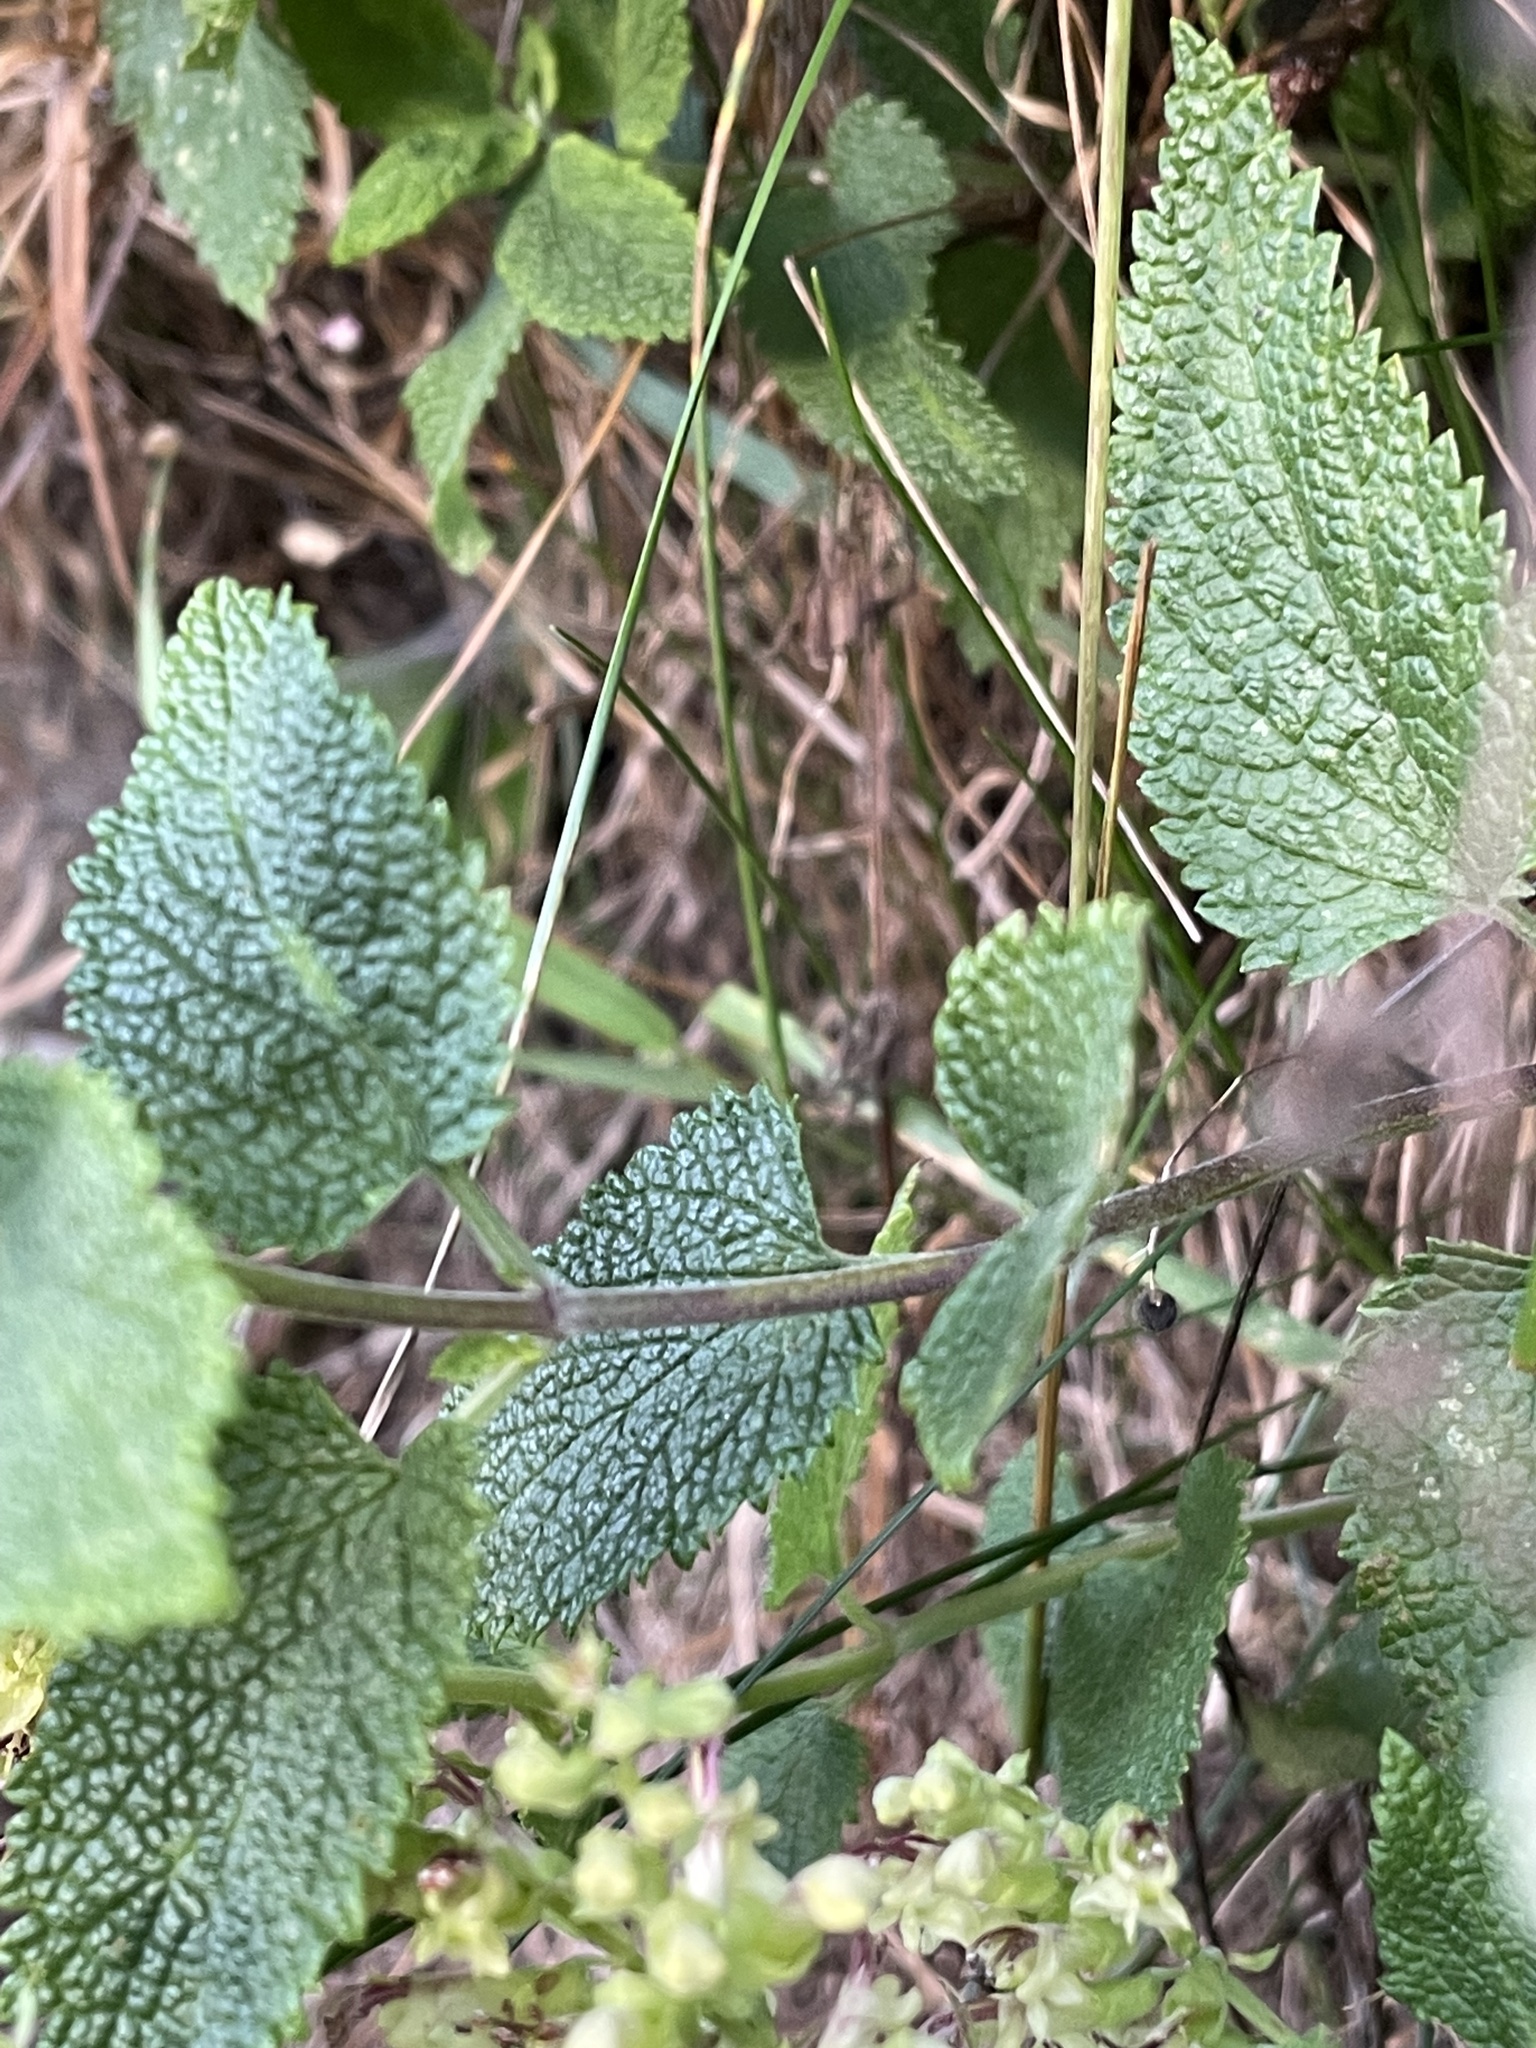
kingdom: Plantae
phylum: Tracheophyta
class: Magnoliopsida
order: Lamiales
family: Lamiaceae
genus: Teucrium
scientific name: Teucrium scorodonia
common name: Woodland germander
